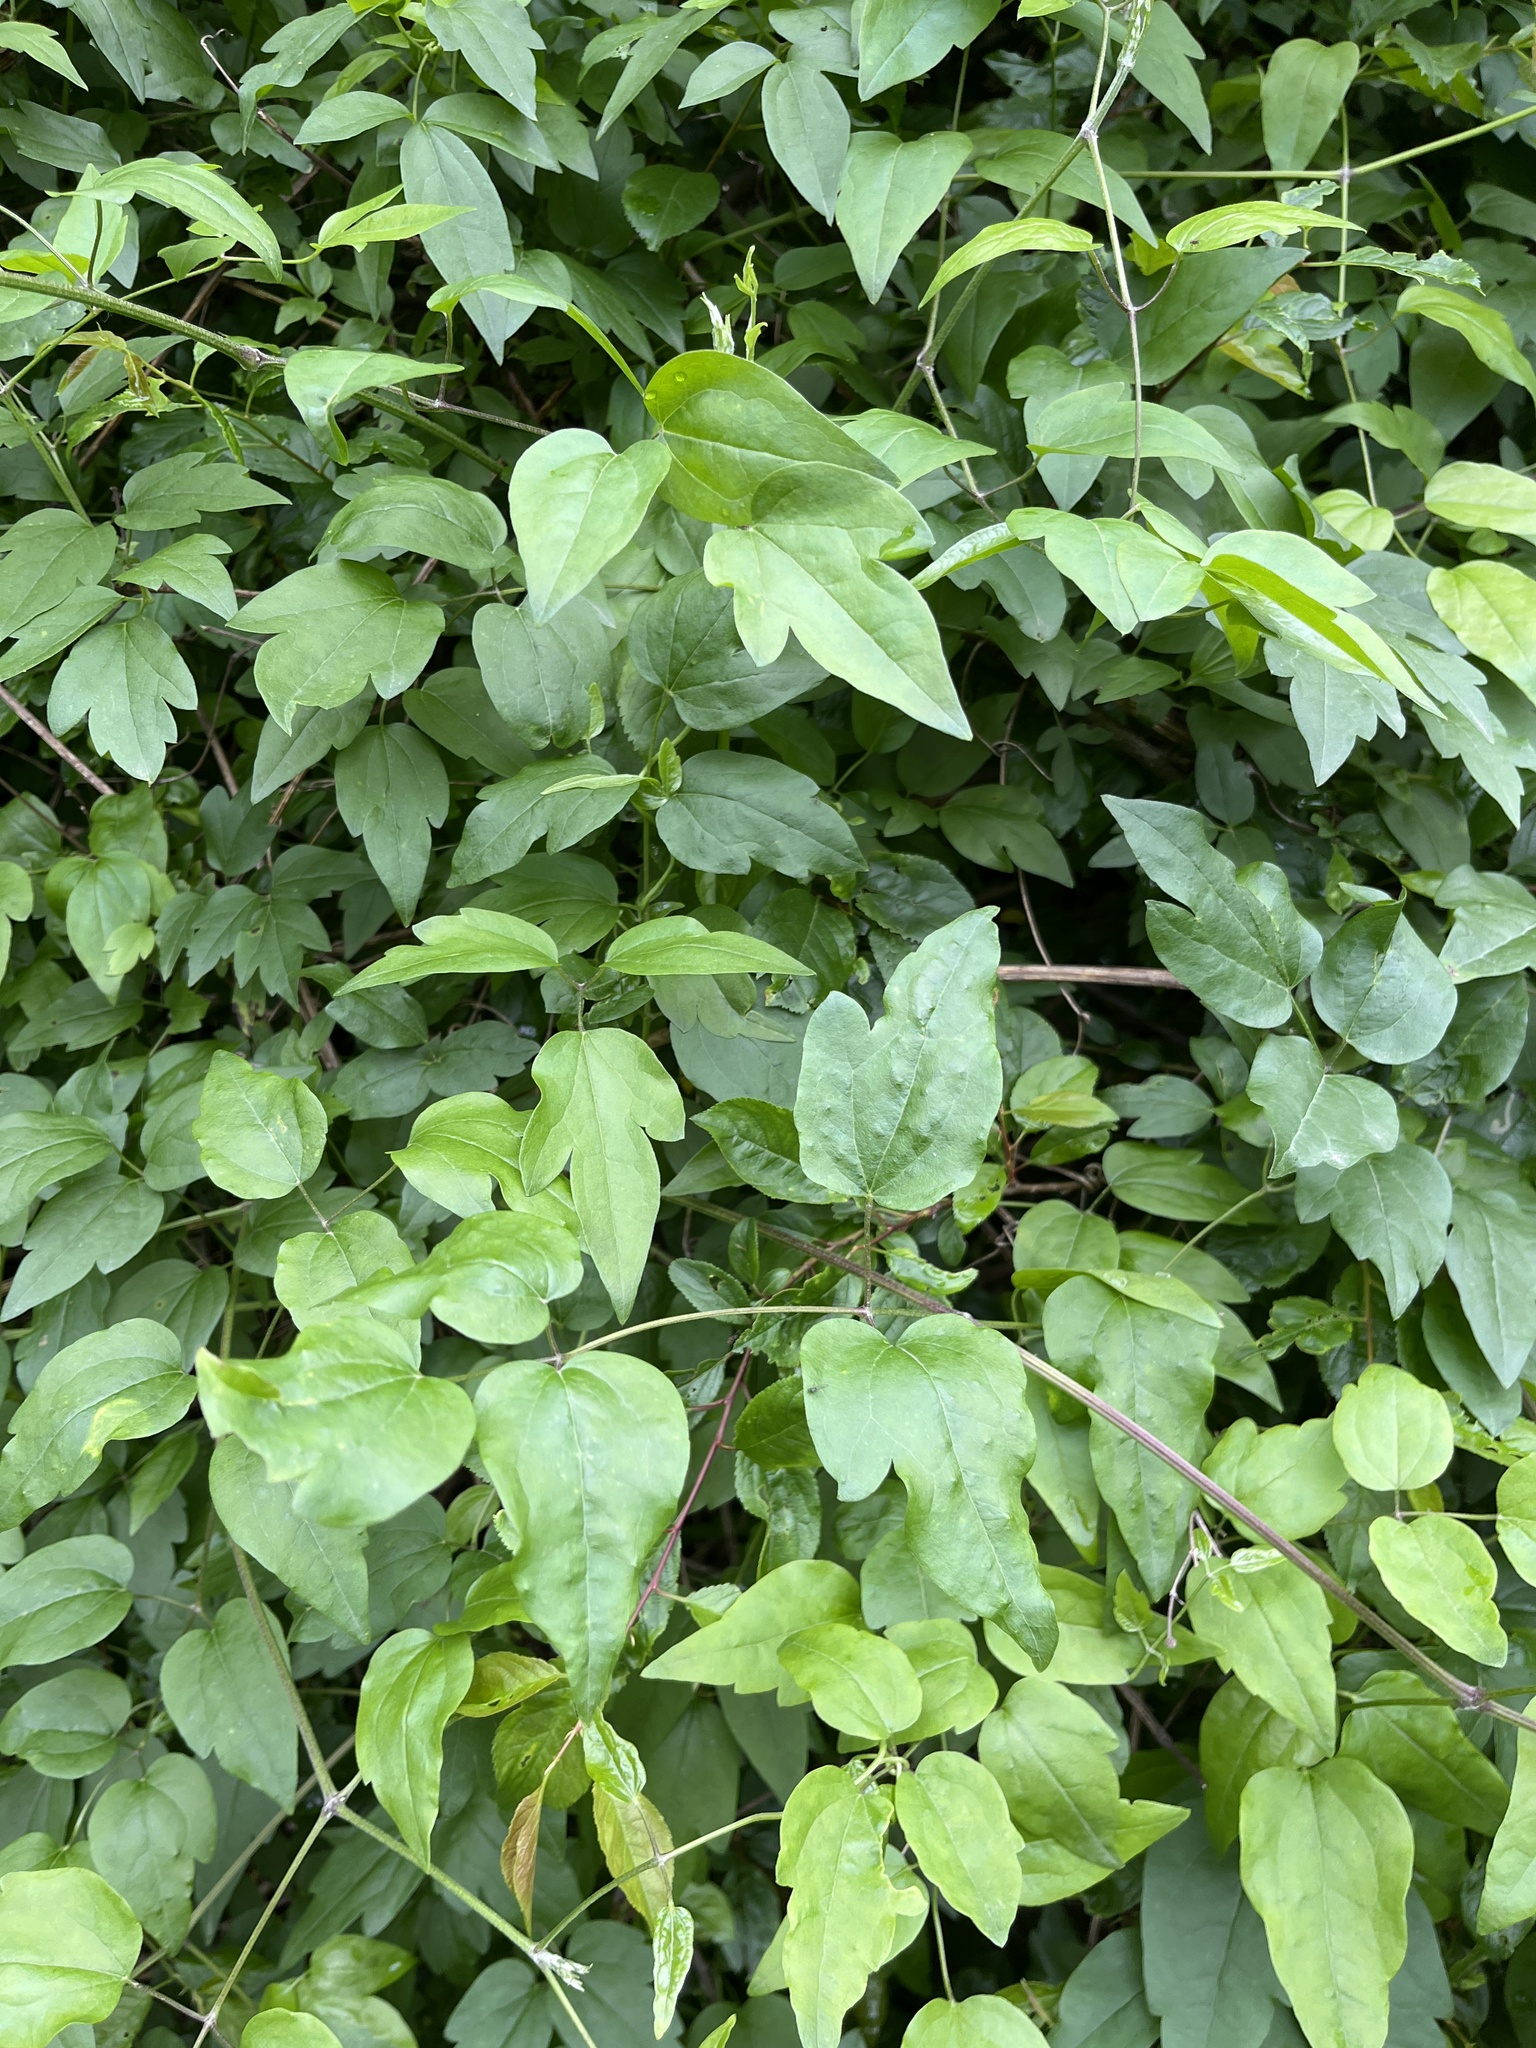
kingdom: Plantae
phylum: Tracheophyta
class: Magnoliopsida
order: Ranunculales
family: Ranunculaceae
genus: Clematis
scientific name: Clematis vitalba
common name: Evergreen clematis
